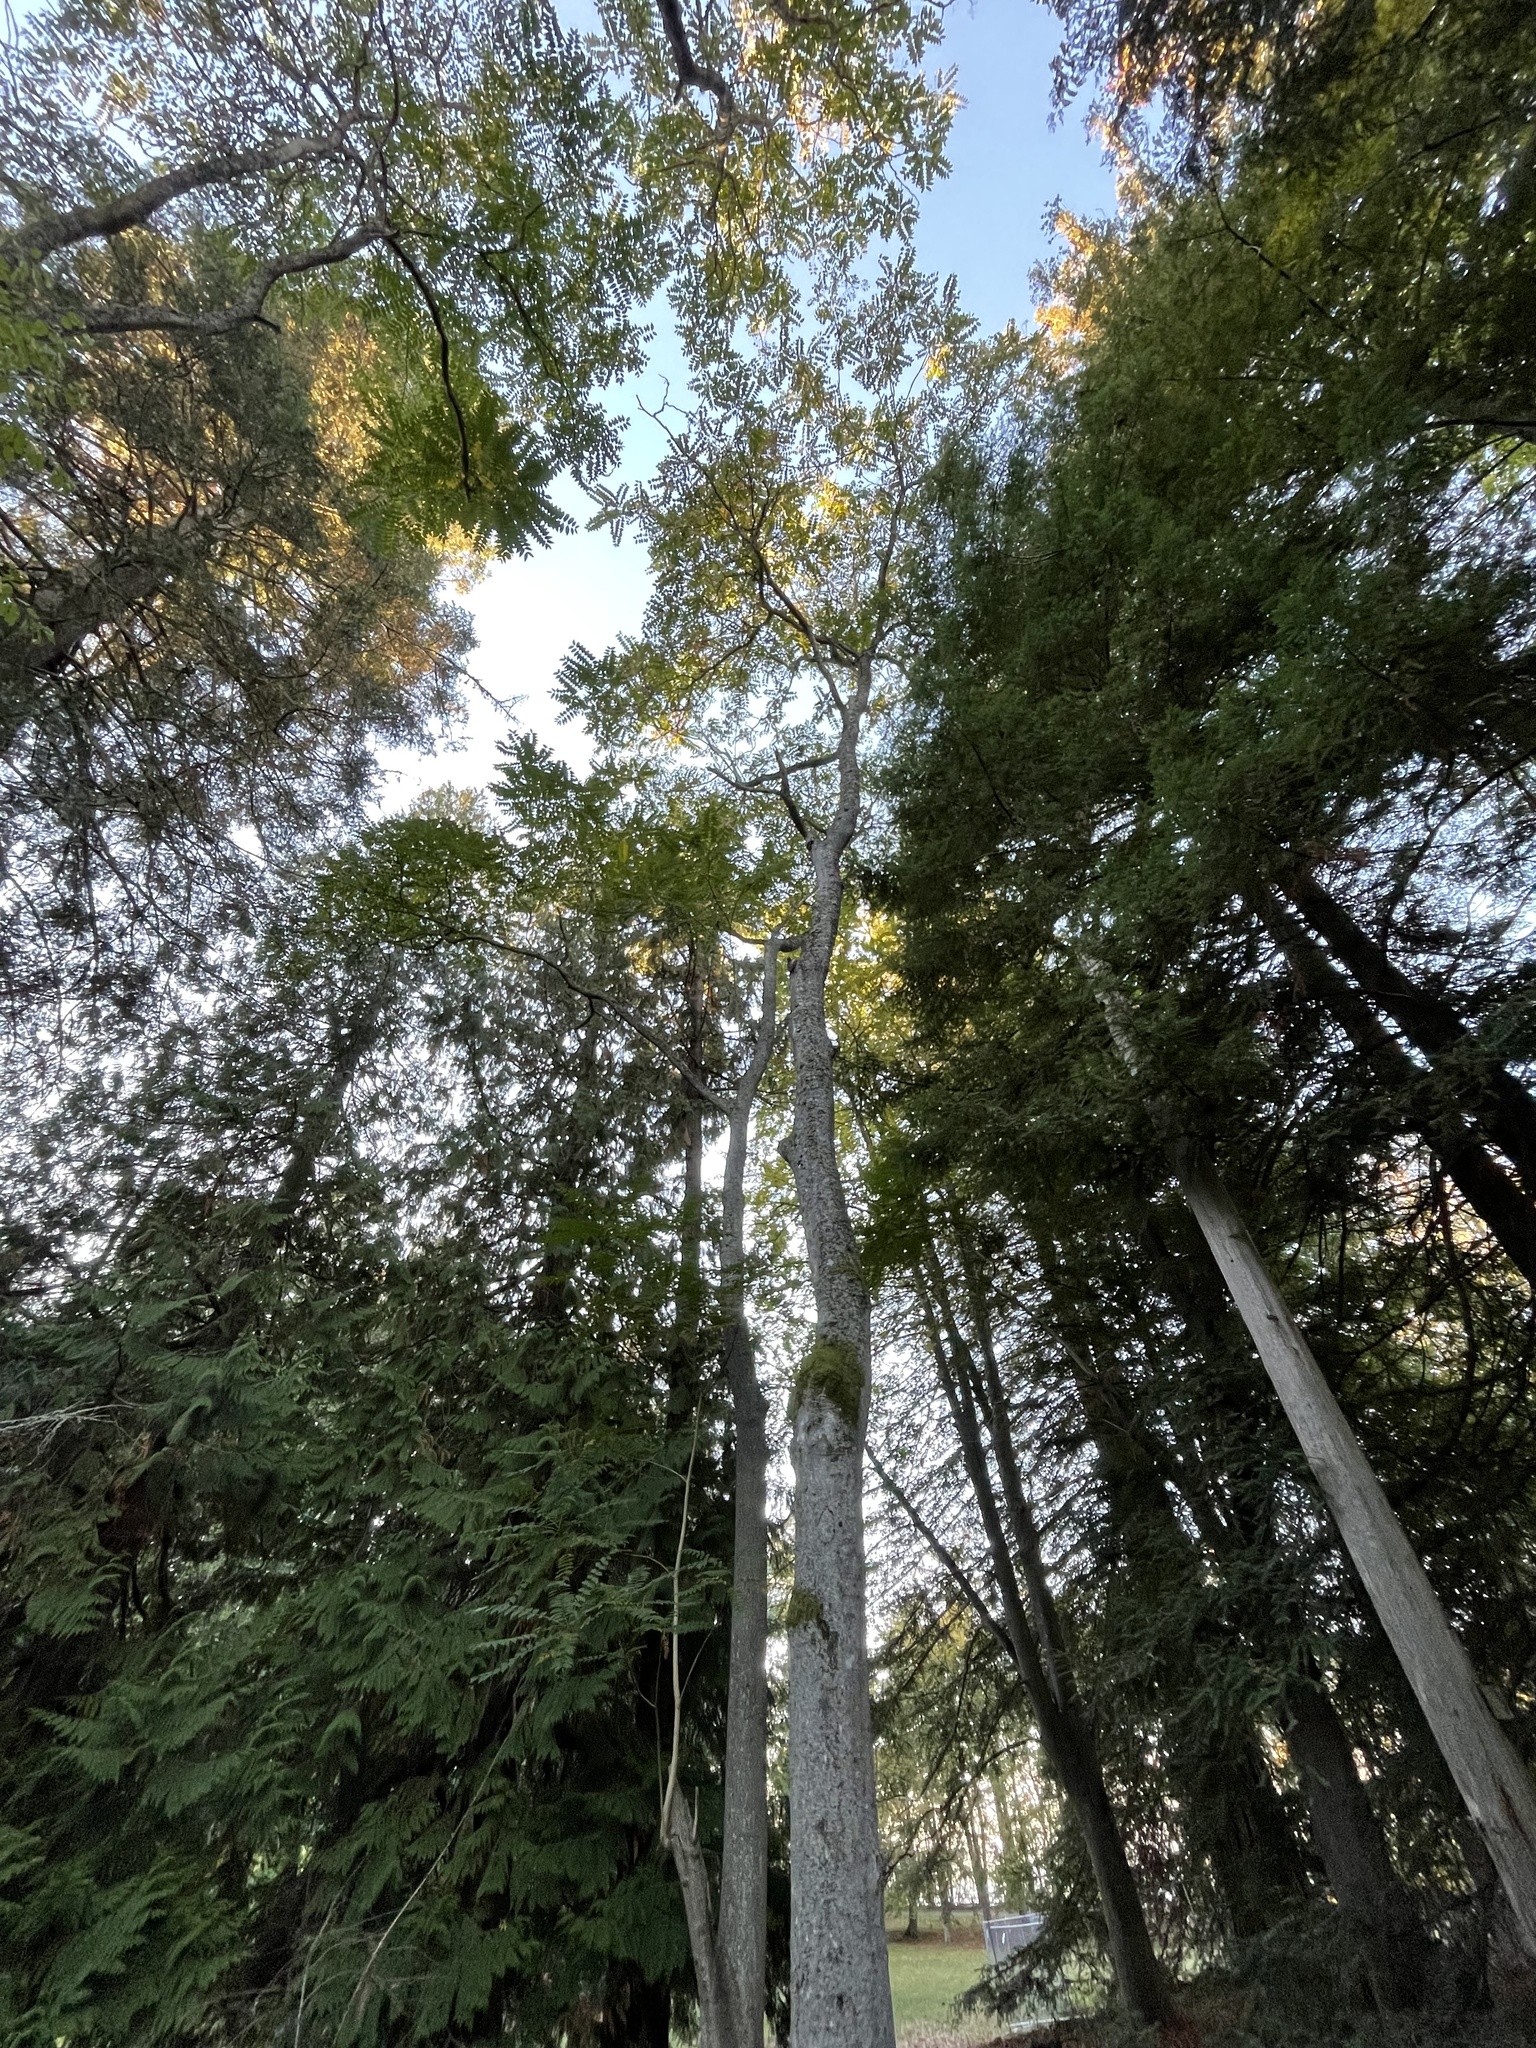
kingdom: Plantae
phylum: Tracheophyta
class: Magnoliopsida
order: Sapindales
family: Simaroubaceae
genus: Ailanthus
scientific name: Ailanthus altissima
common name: Tree-of-heaven
